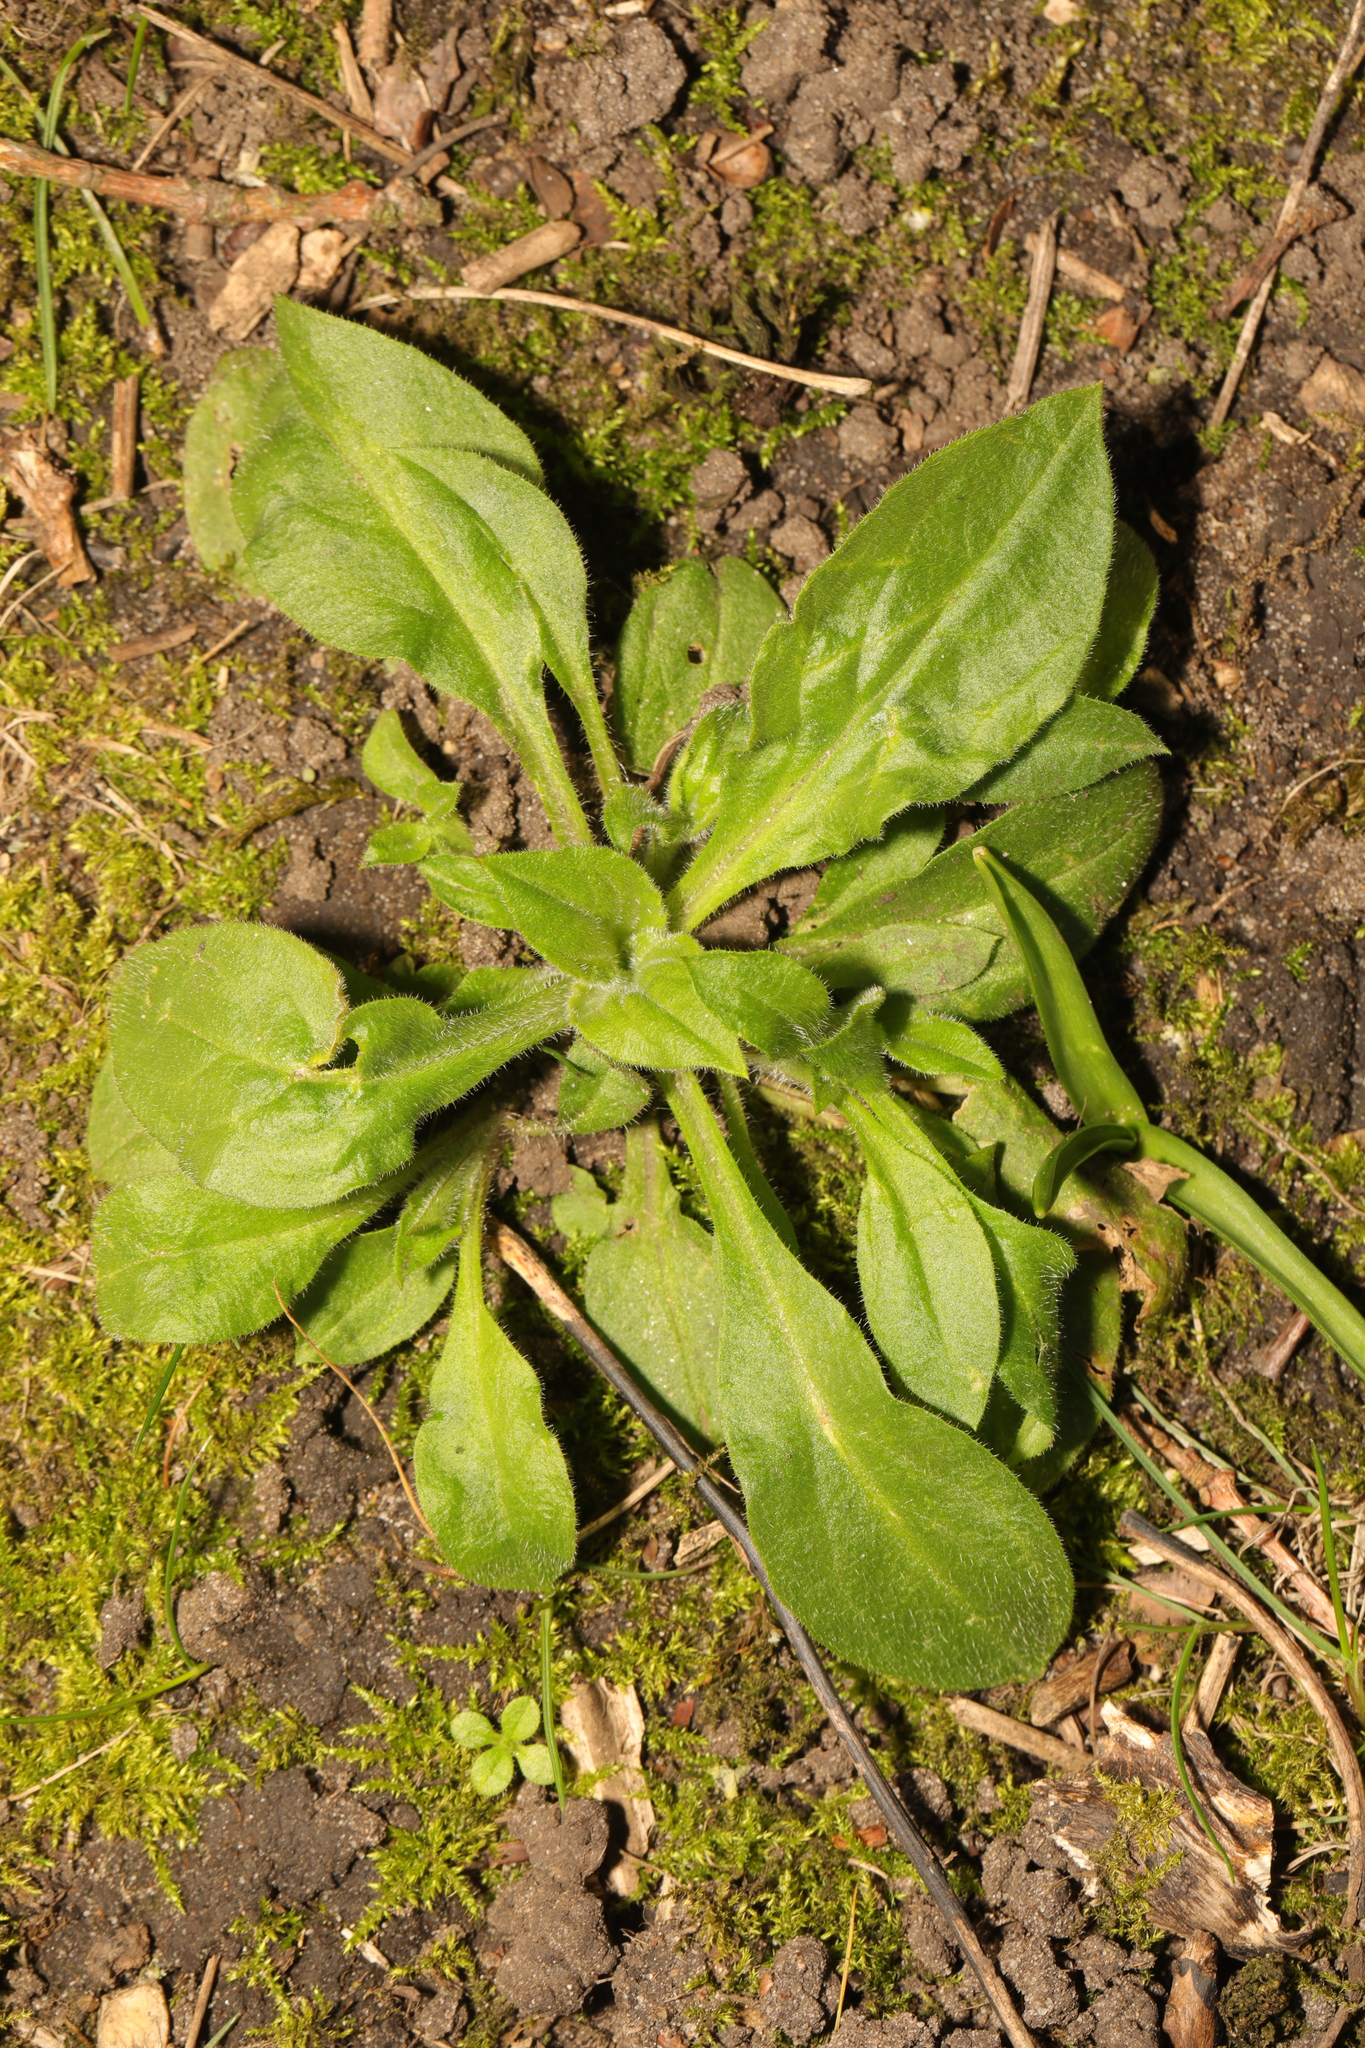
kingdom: Plantae
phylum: Tracheophyta
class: Magnoliopsida
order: Asterales
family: Asteraceae
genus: Bellis
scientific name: Bellis perennis
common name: Lawndaisy
